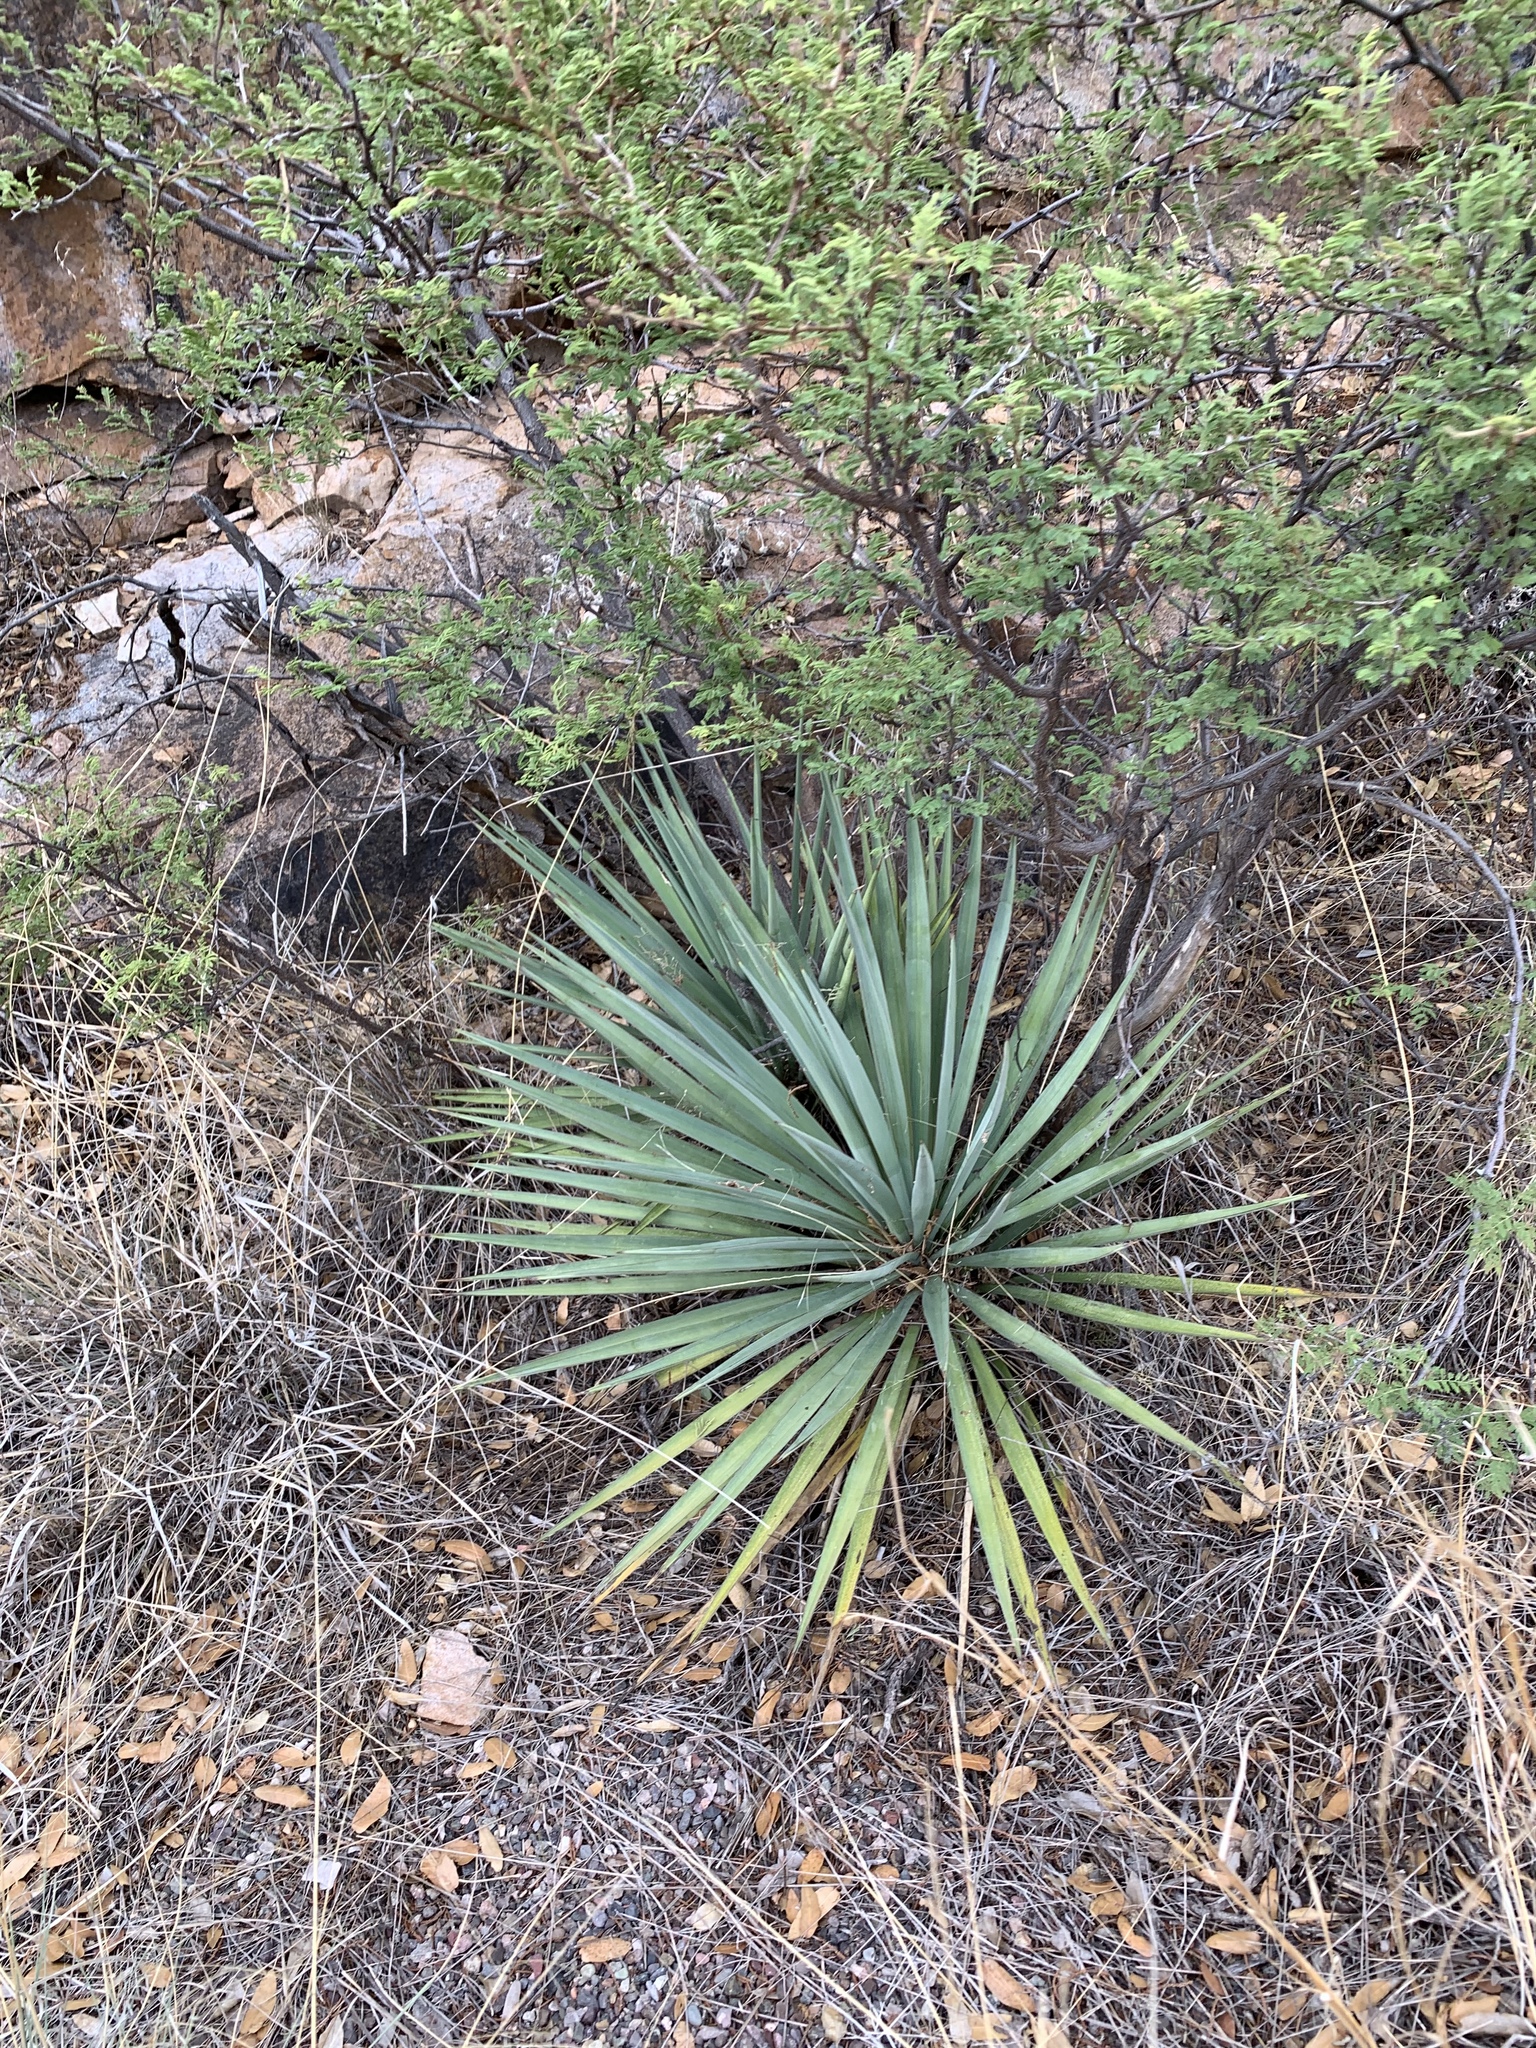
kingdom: Plantae
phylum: Tracheophyta
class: Liliopsida
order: Asparagales
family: Asparagaceae
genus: Yucca
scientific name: Yucca madrensis
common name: Hoary yucca
